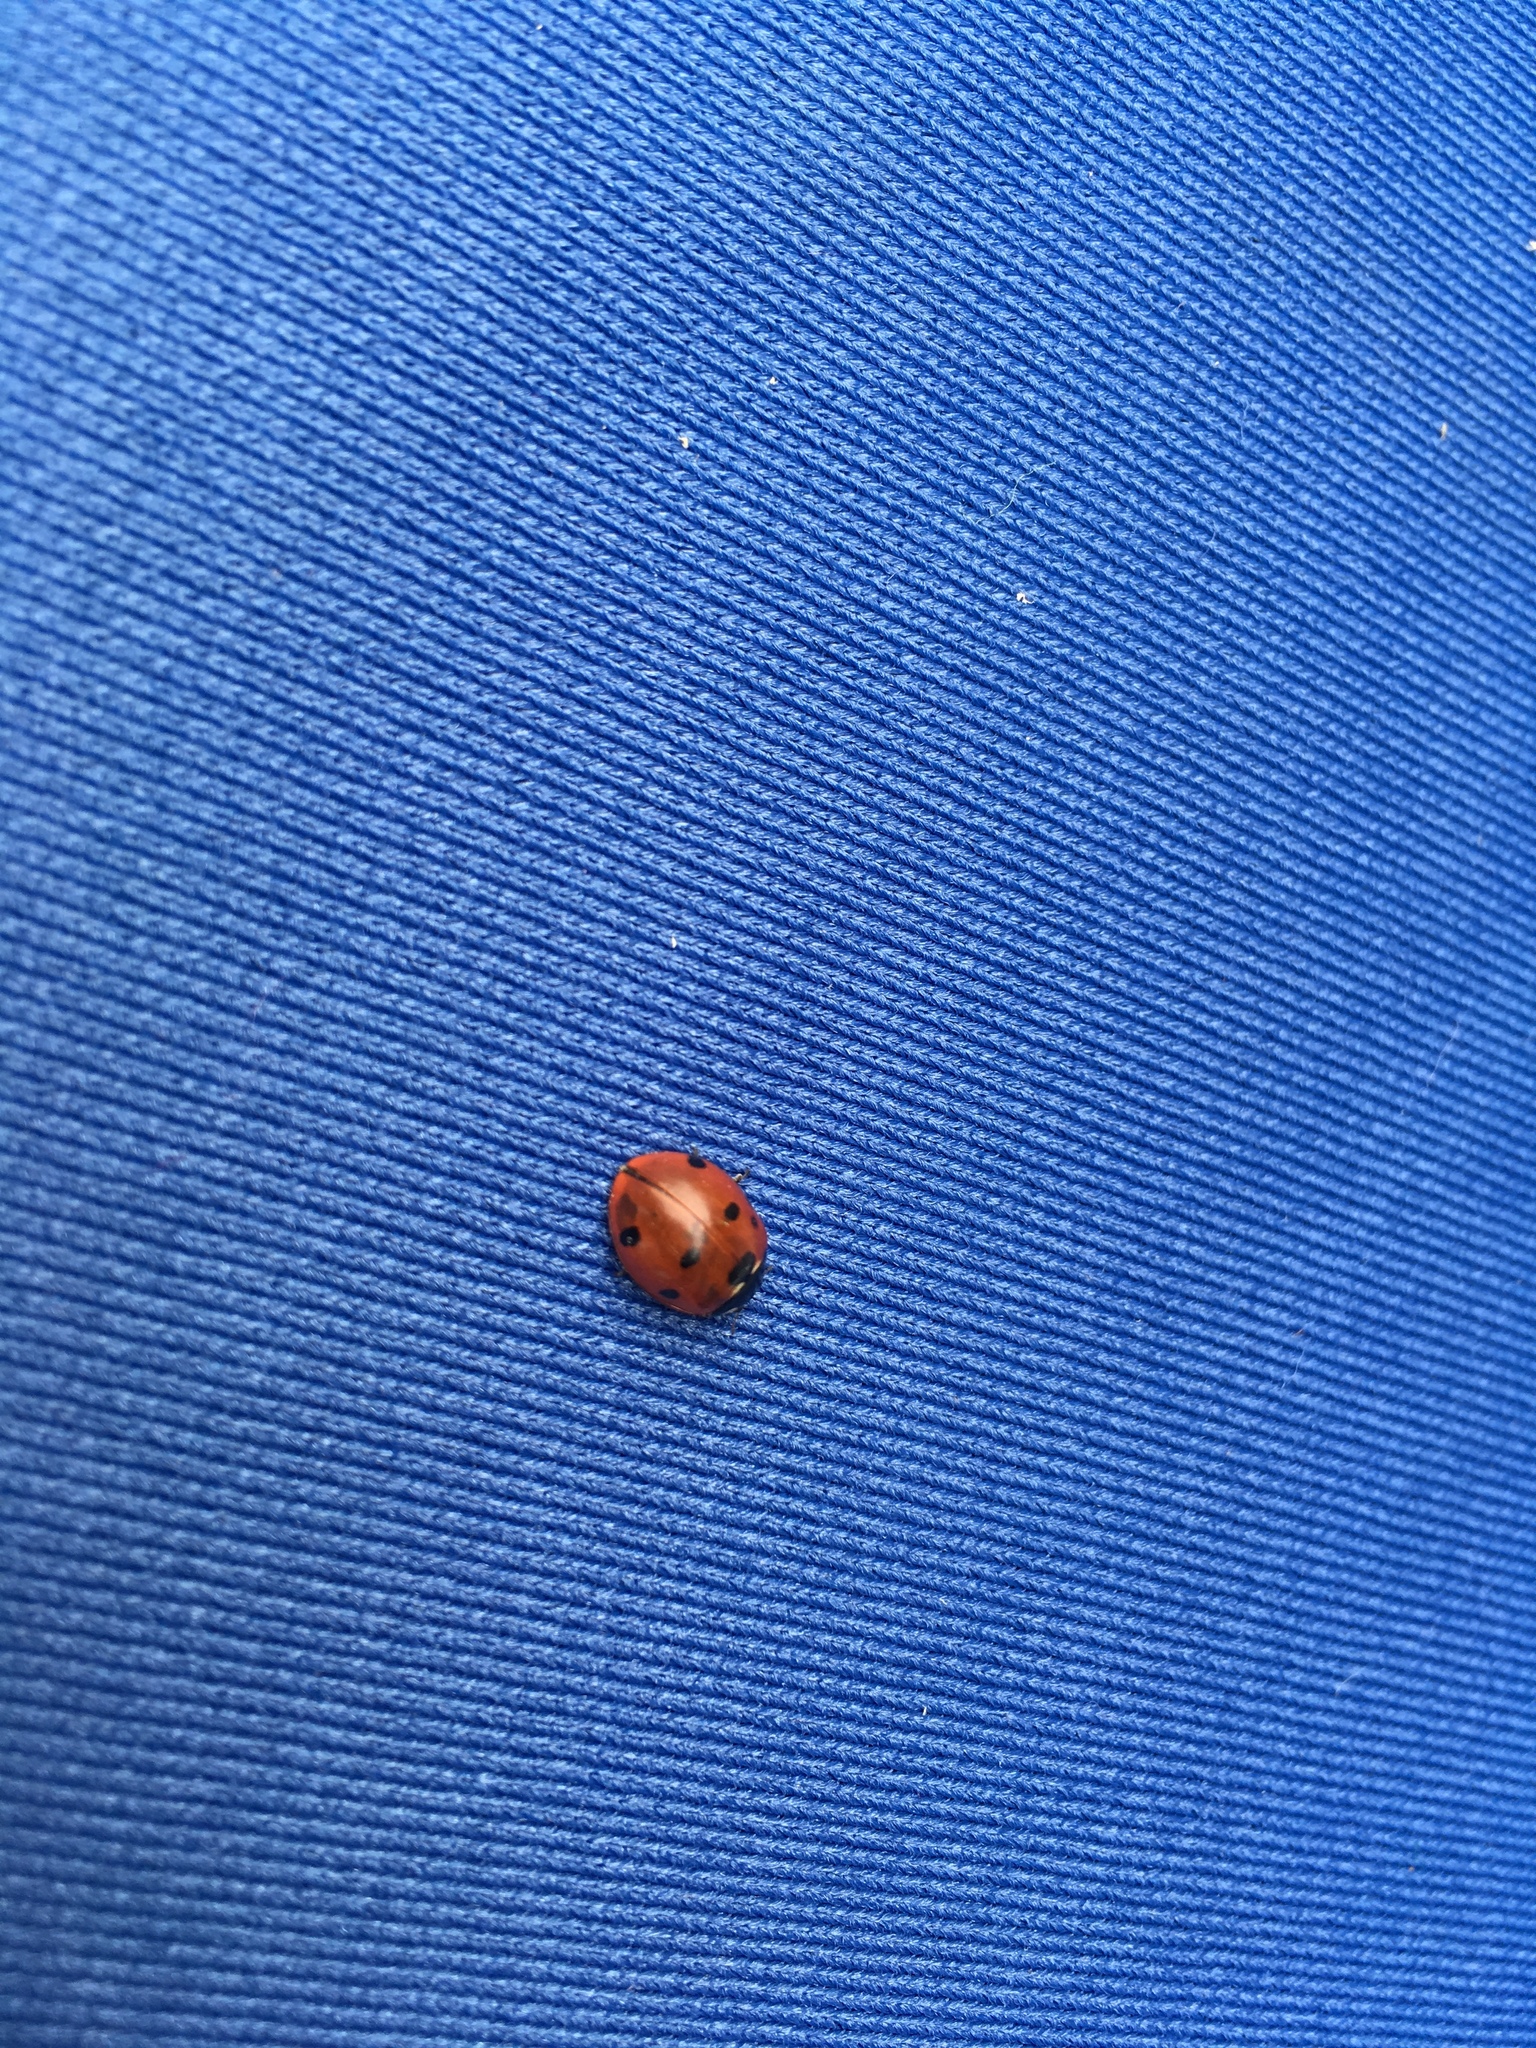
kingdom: Animalia
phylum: Arthropoda
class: Insecta
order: Coleoptera
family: Coccinellidae
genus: Coccinella
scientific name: Coccinella septempunctata
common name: Sevenspotted lady beetle
